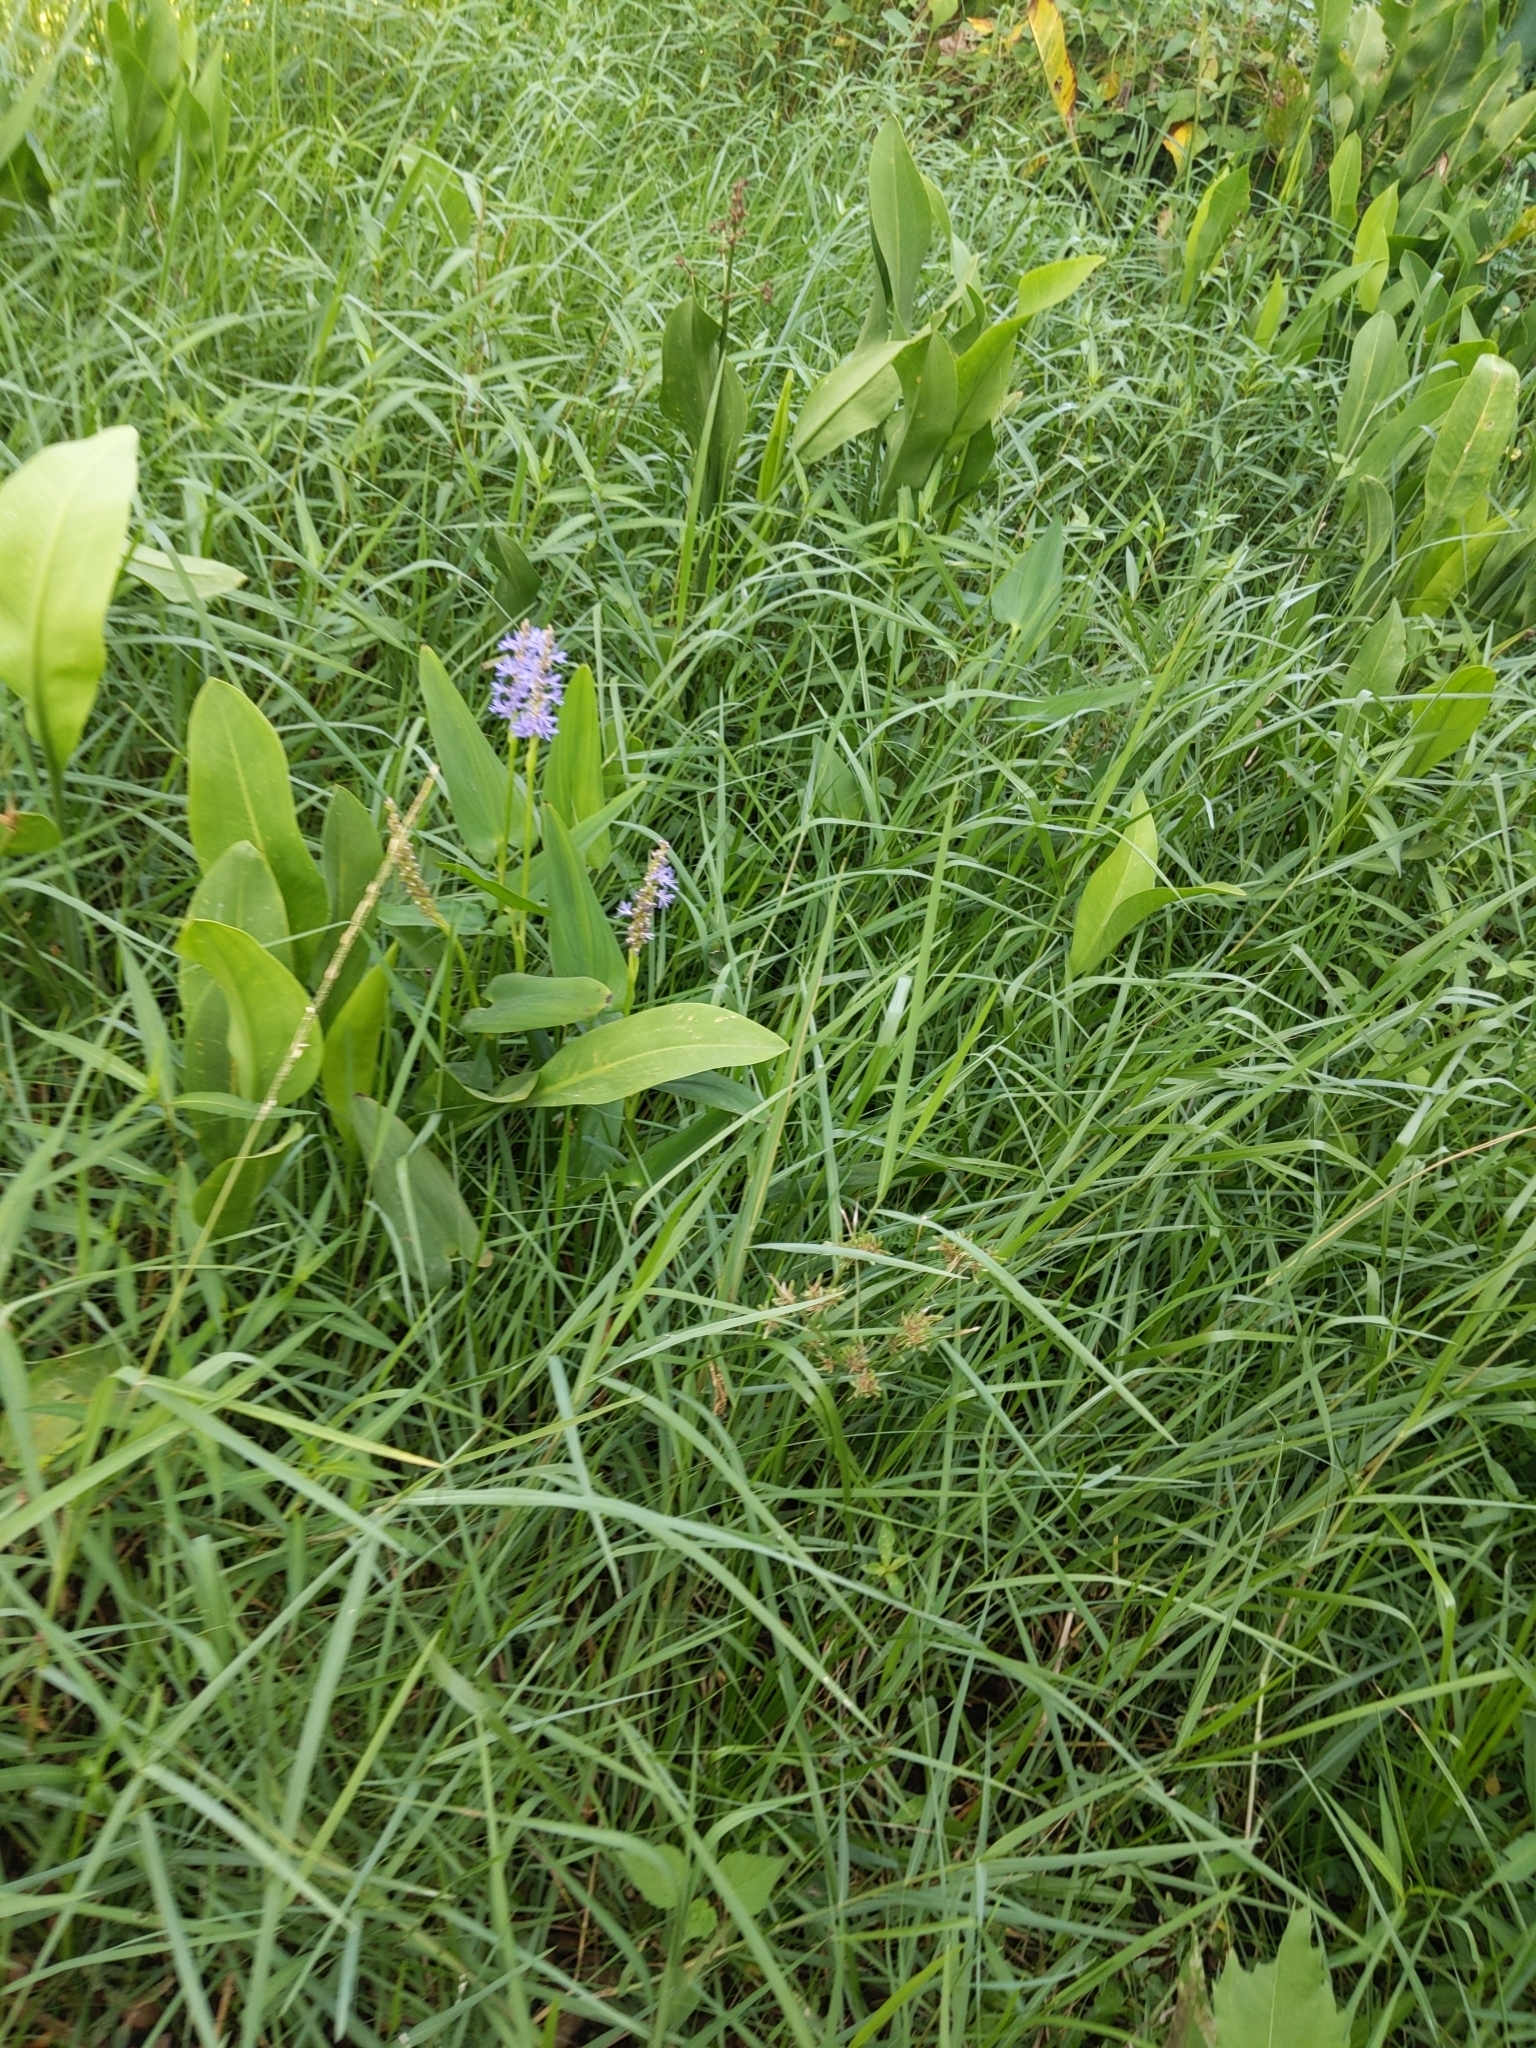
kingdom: Plantae
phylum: Tracheophyta
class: Liliopsida
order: Commelinales
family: Pontederiaceae
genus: Pontederia
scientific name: Pontederia cordata
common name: Pickerelweed
